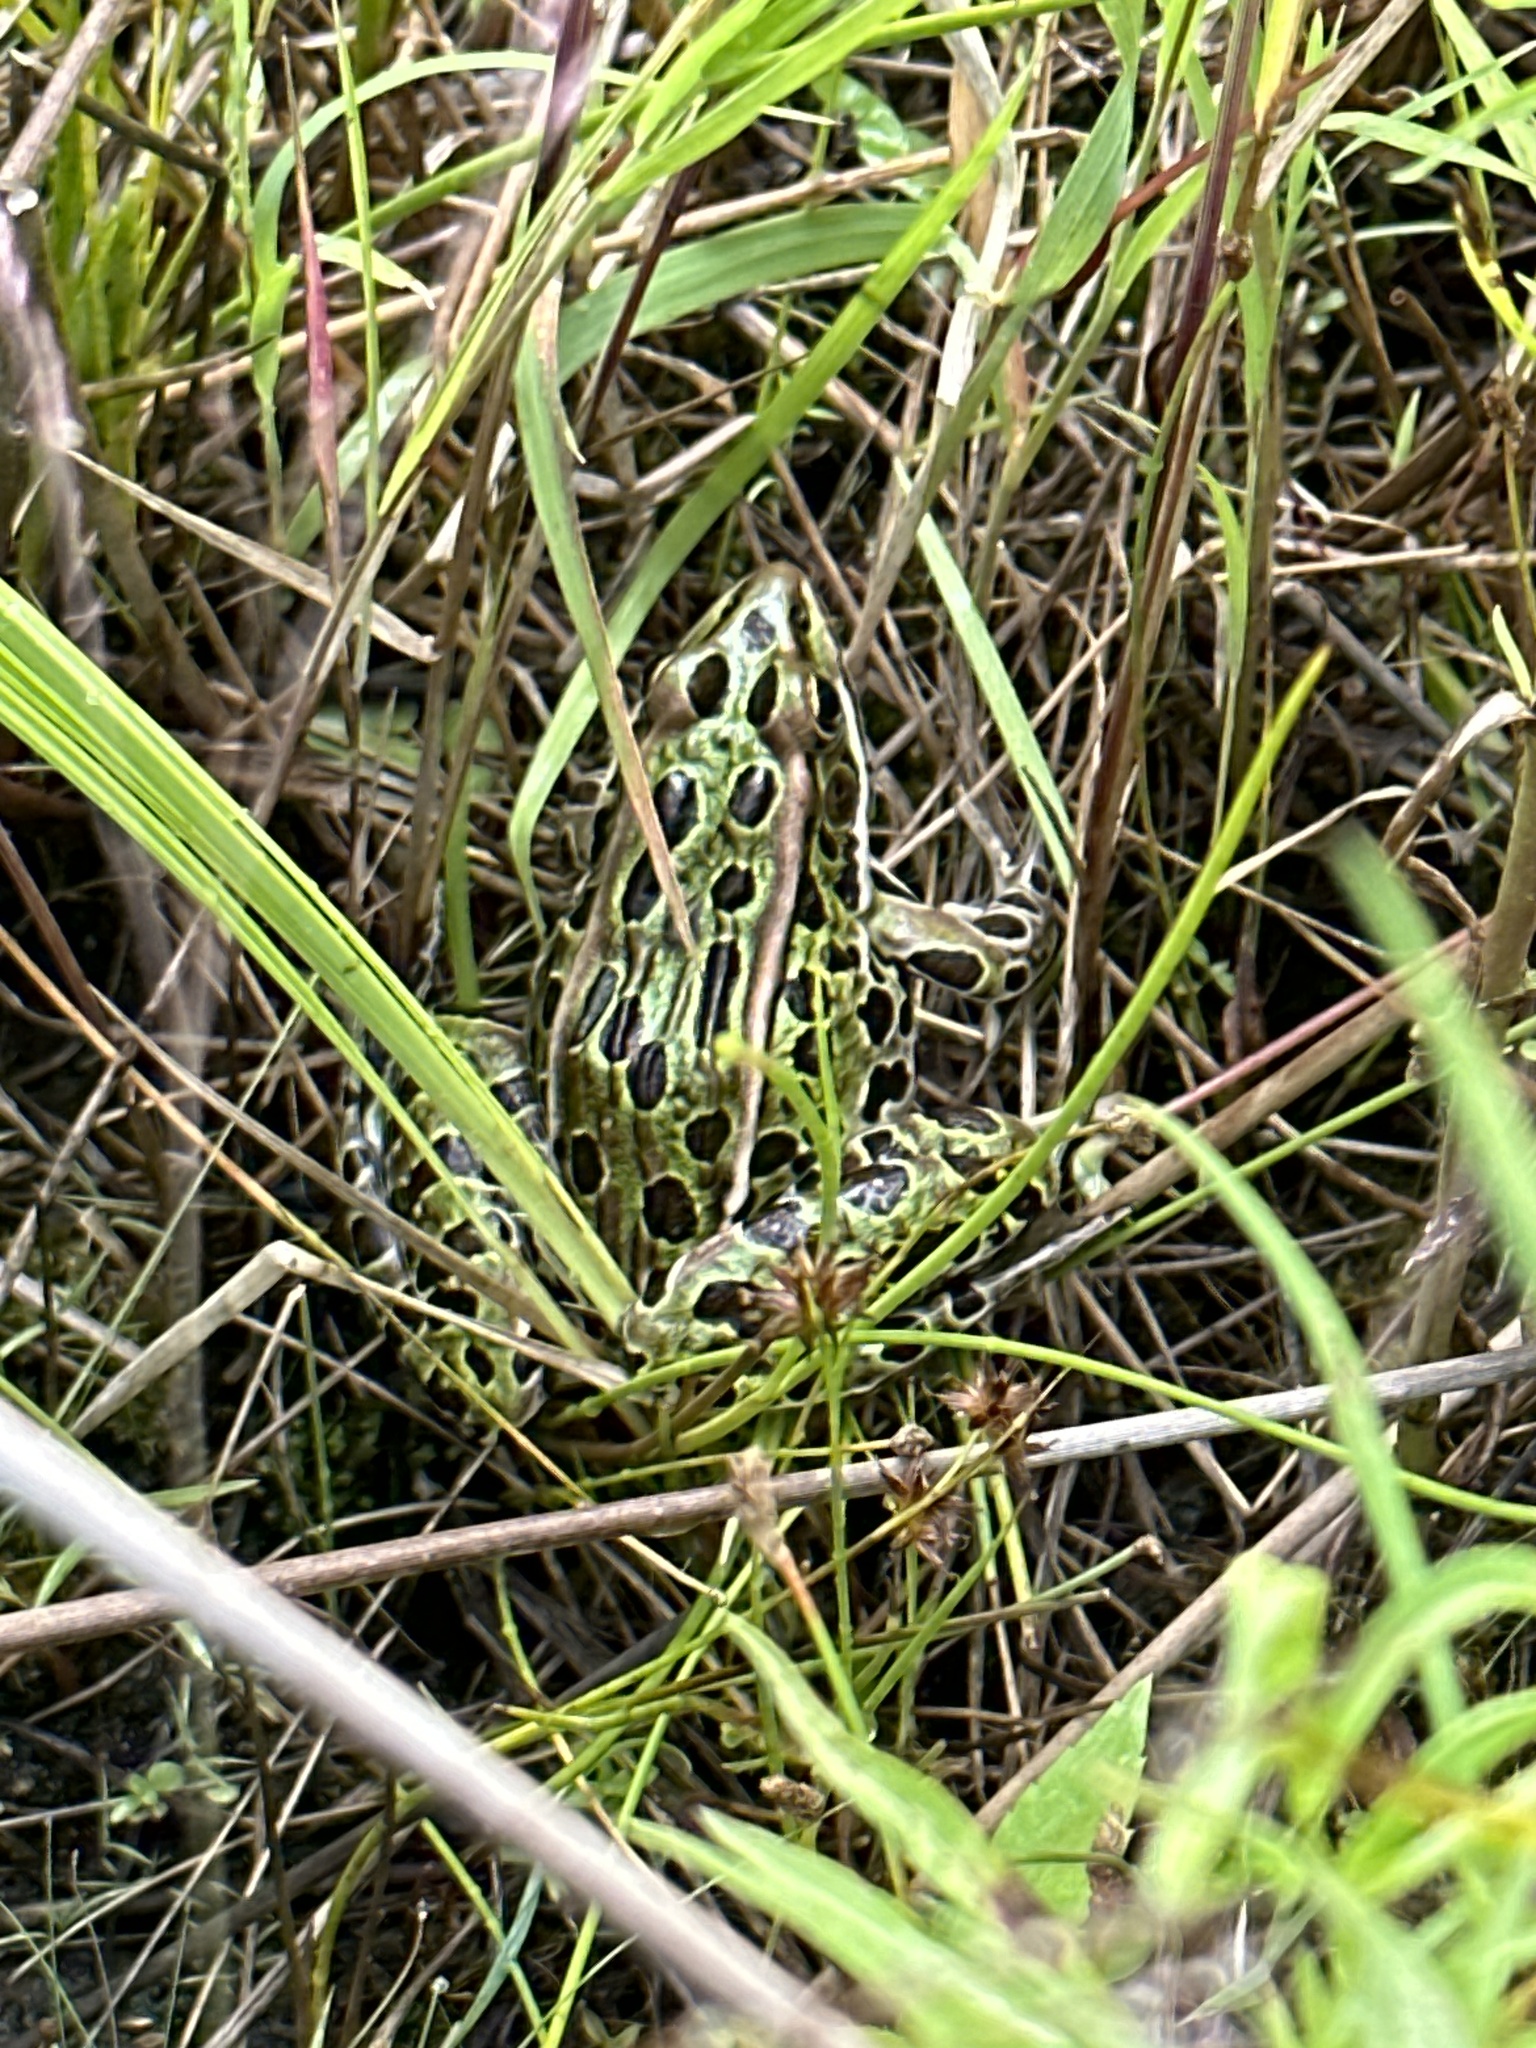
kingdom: Animalia
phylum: Chordata
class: Amphibia
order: Anura
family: Ranidae
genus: Lithobates
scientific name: Lithobates pipiens
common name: Northern leopard frog
